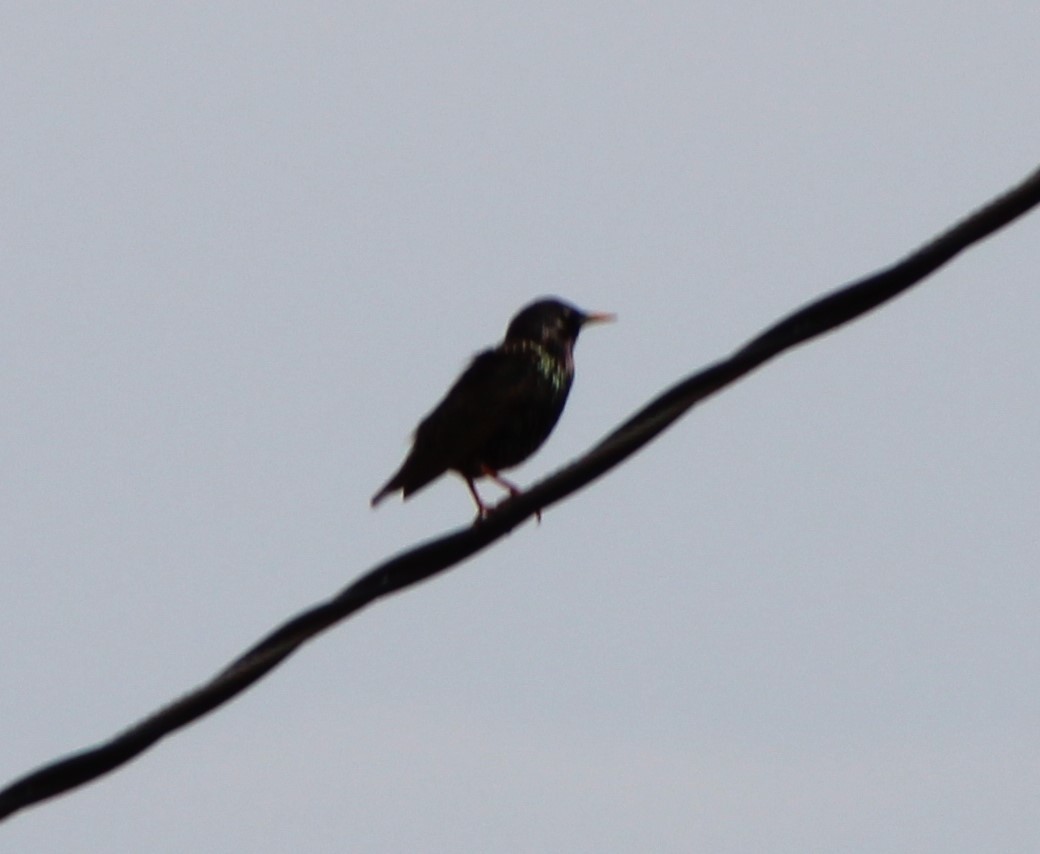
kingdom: Animalia
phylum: Chordata
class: Aves
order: Passeriformes
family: Sturnidae
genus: Sturnus
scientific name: Sturnus vulgaris
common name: Common starling
